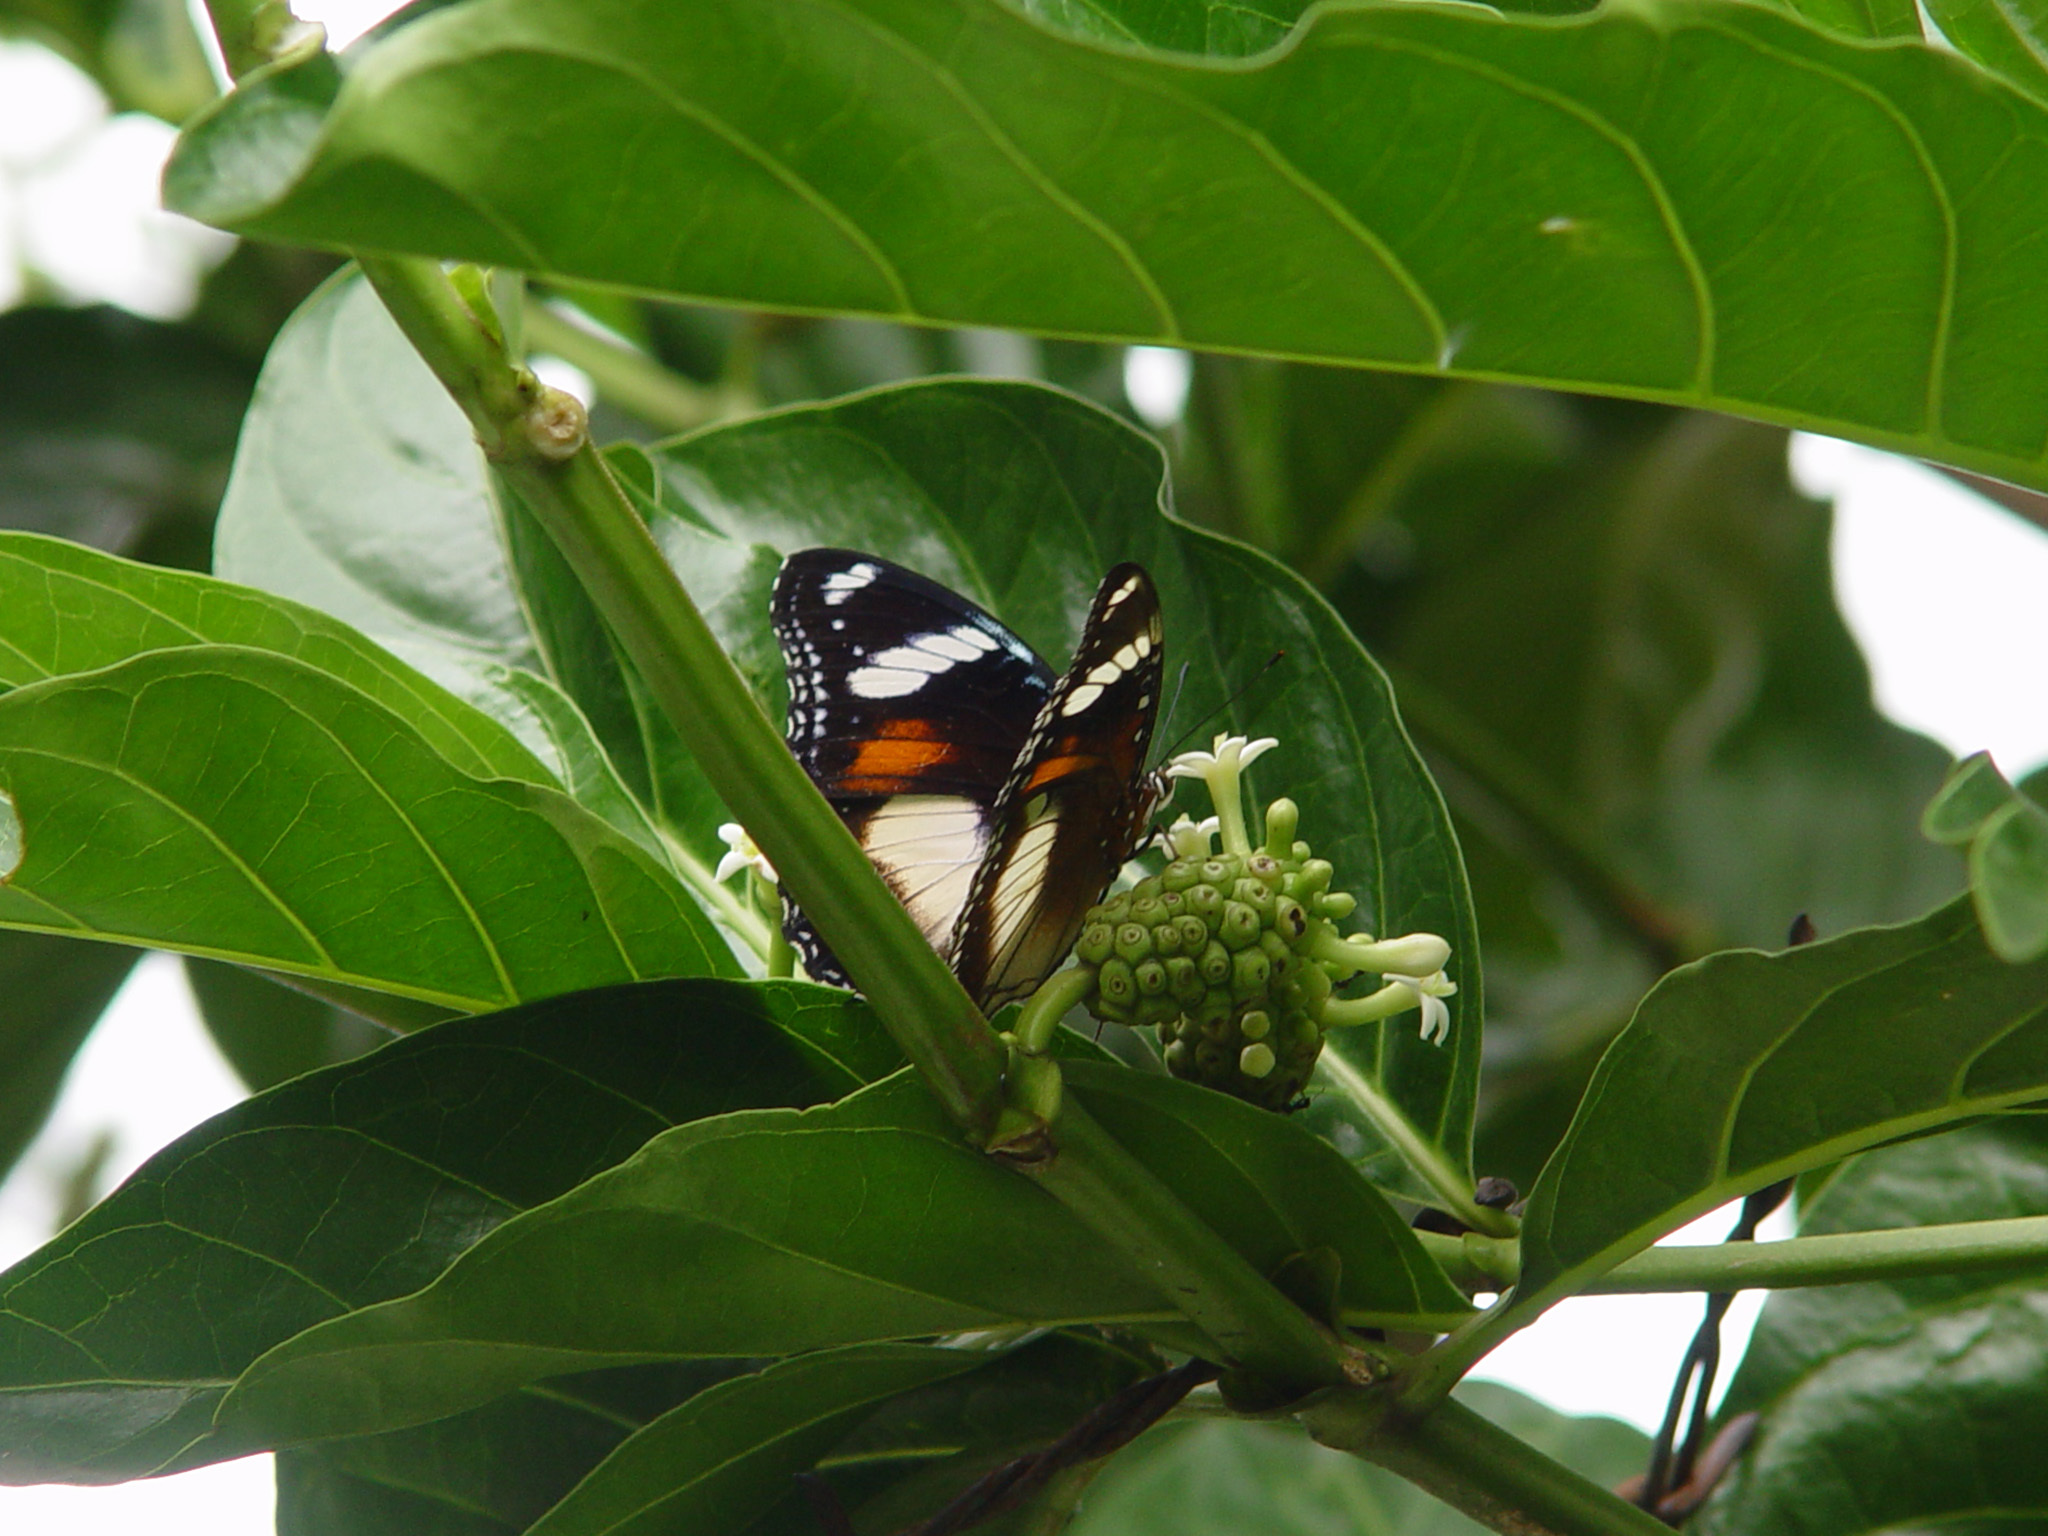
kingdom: Animalia
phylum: Arthropoda
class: Insecta
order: Lepidoptera
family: Nymphalidae
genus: Hypolimnas
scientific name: Hypolimnas bolina
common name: Great eggfly
